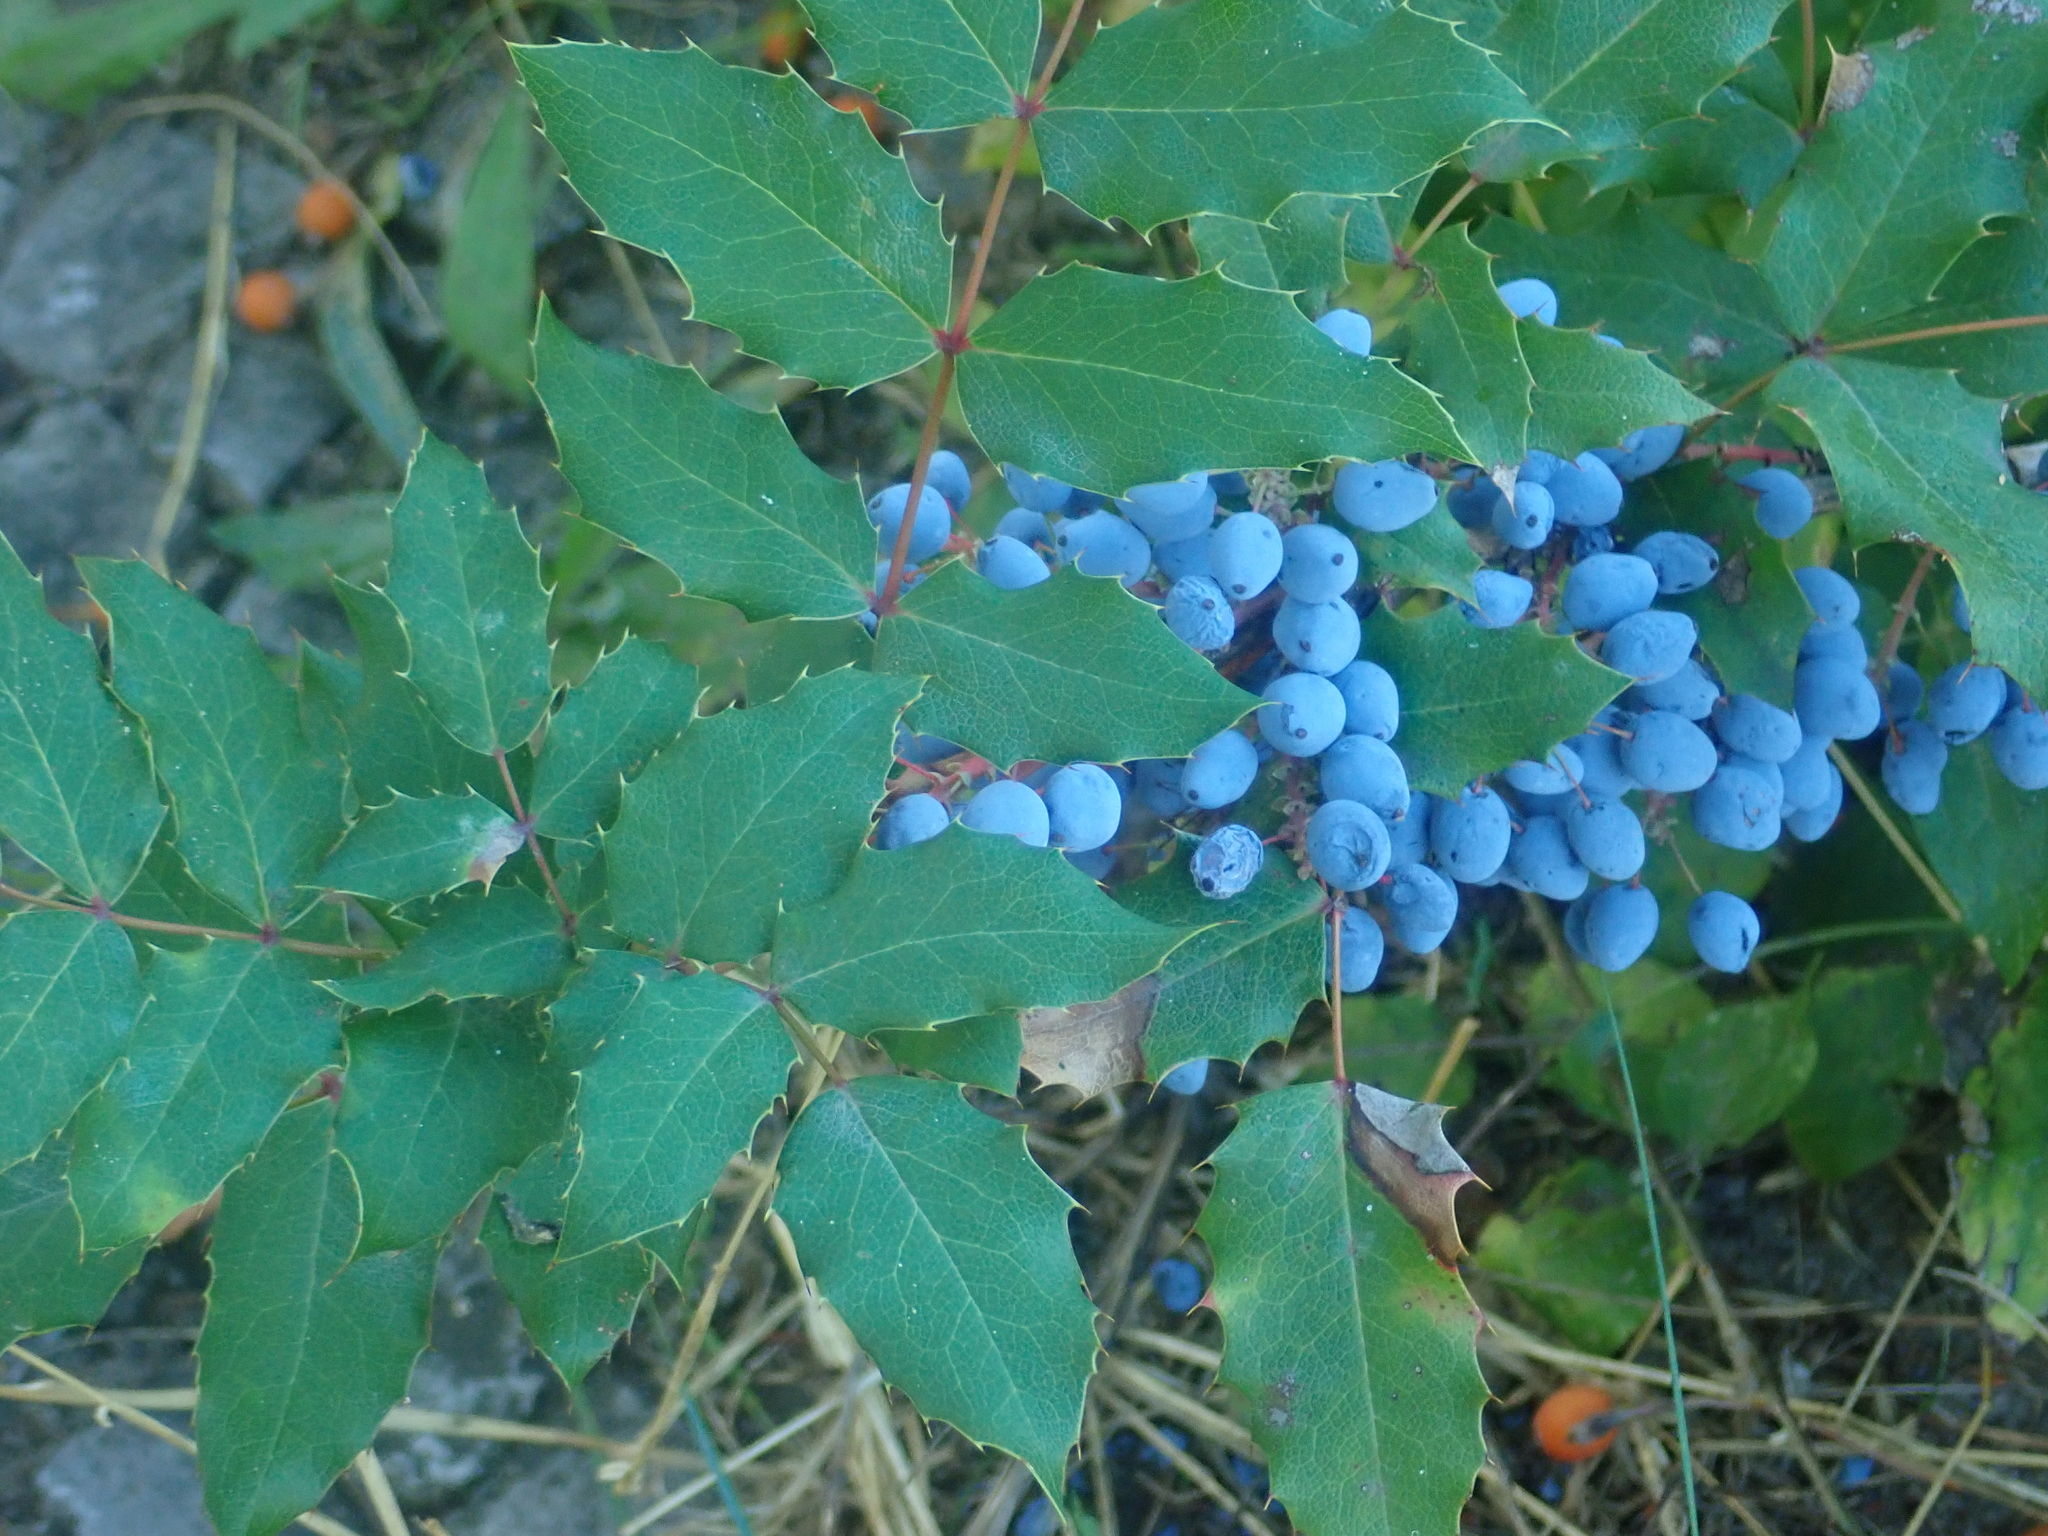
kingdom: Plantae
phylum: Tracheophyta
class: Magnoliopsida
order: Ranunculales
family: Berberidaceae
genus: Mahonia
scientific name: Mahonia aquifolium
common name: Oregon-grape
